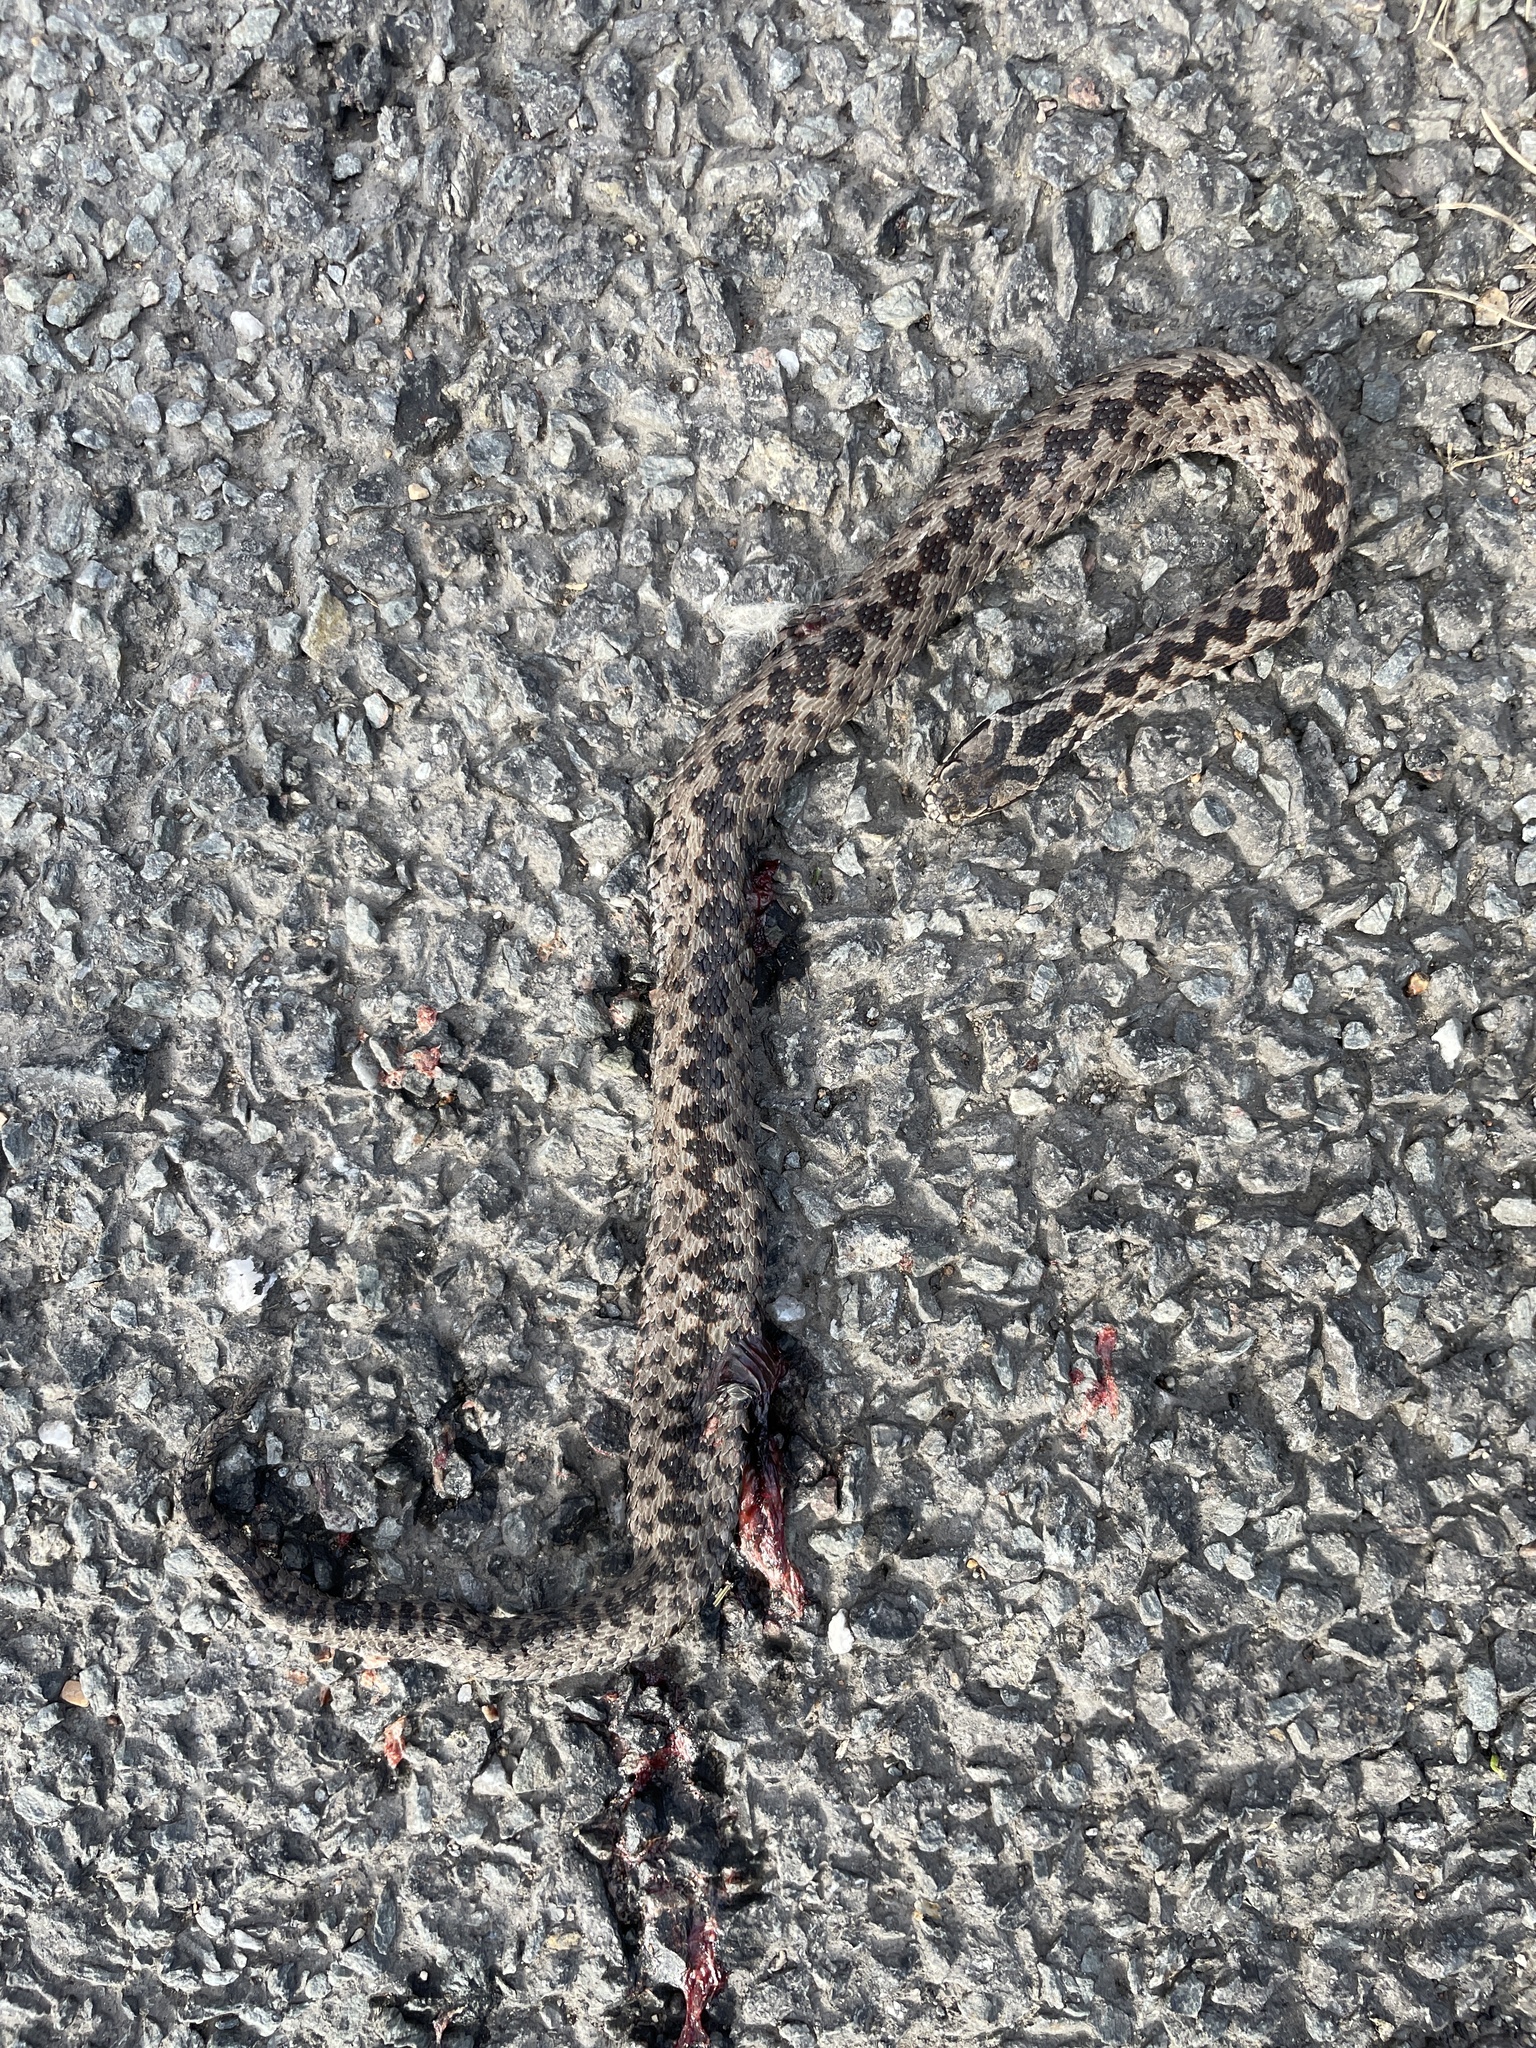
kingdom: Animalia
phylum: Chordata
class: Squamata
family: Viperidae
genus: Vipera
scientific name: Vipera berus
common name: Adder
